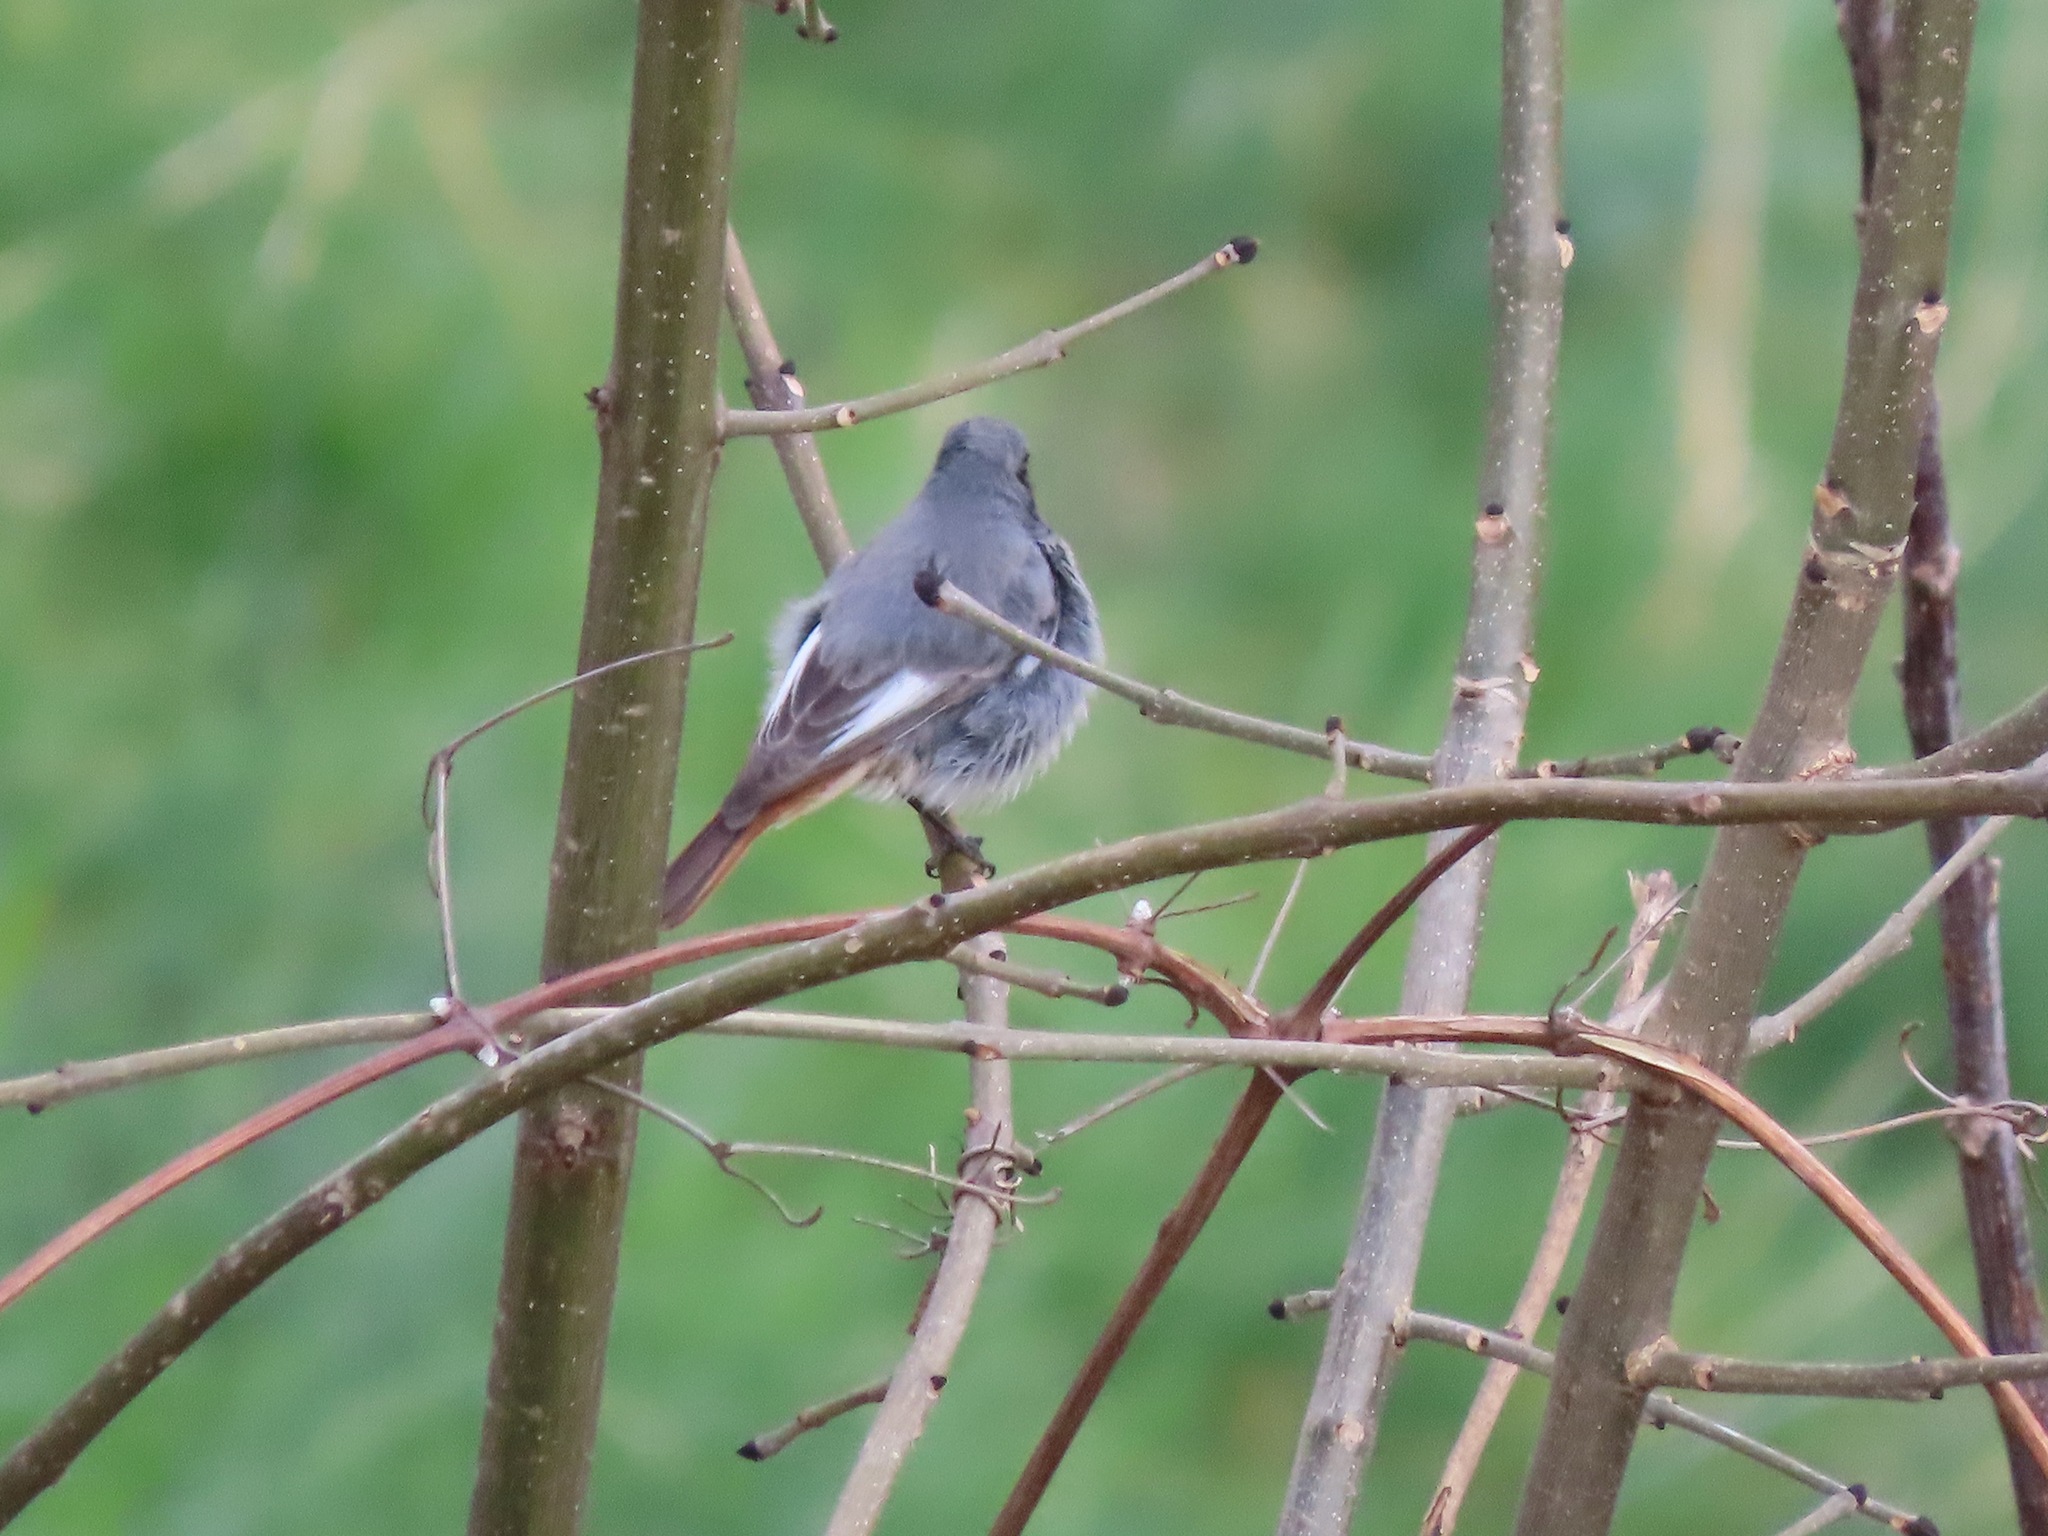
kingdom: Animalia
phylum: Chordata
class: Aves
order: Passeriformes
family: Muscicapidae
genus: Phoenicurus
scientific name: Phoenicurus ochruros
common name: Black redstart
